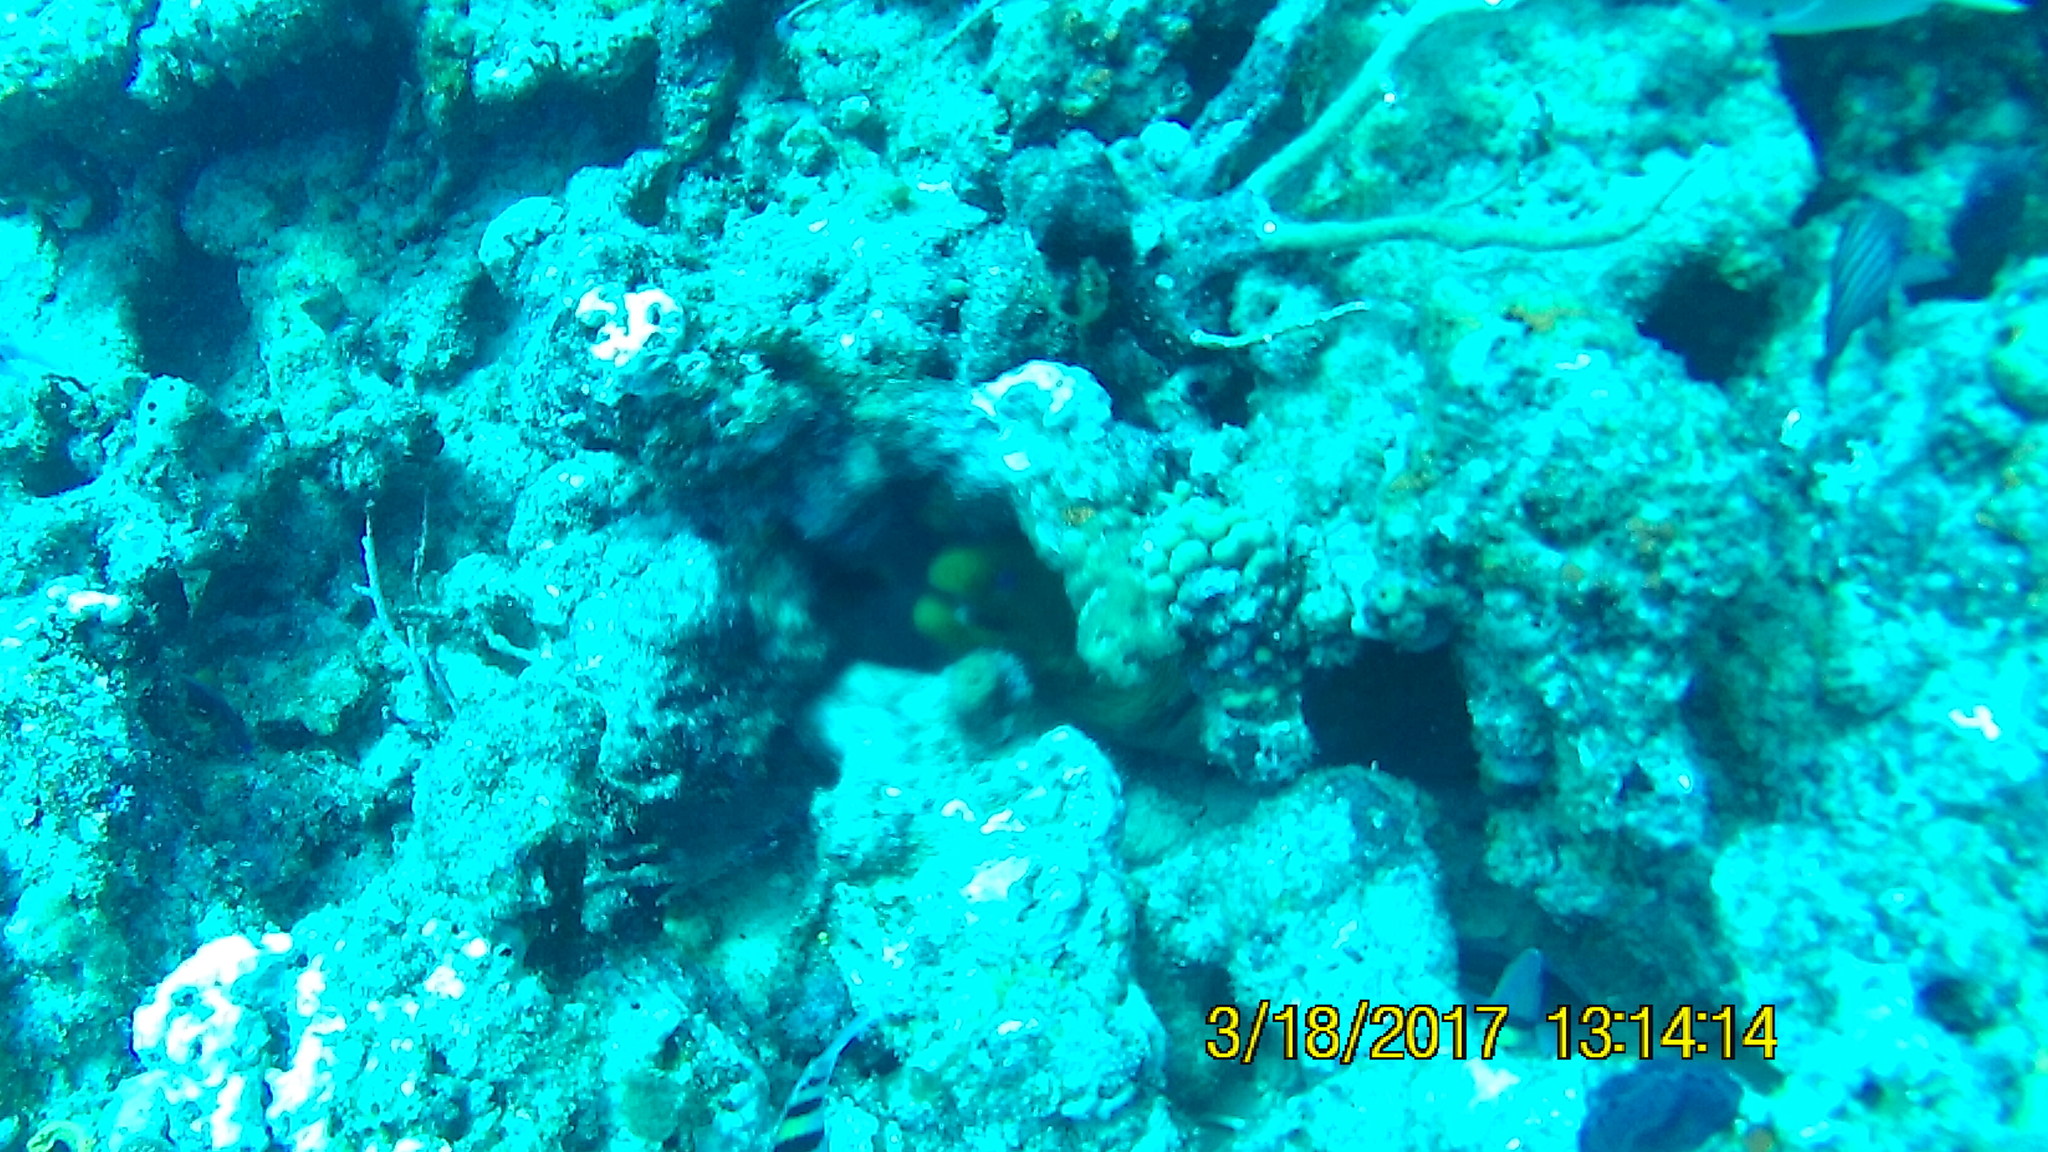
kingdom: Animalia
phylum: Chordata
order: Anguilliformes
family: Muraenidae
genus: Gymnothorax
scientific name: Gymnothorax funebris
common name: Green moray
